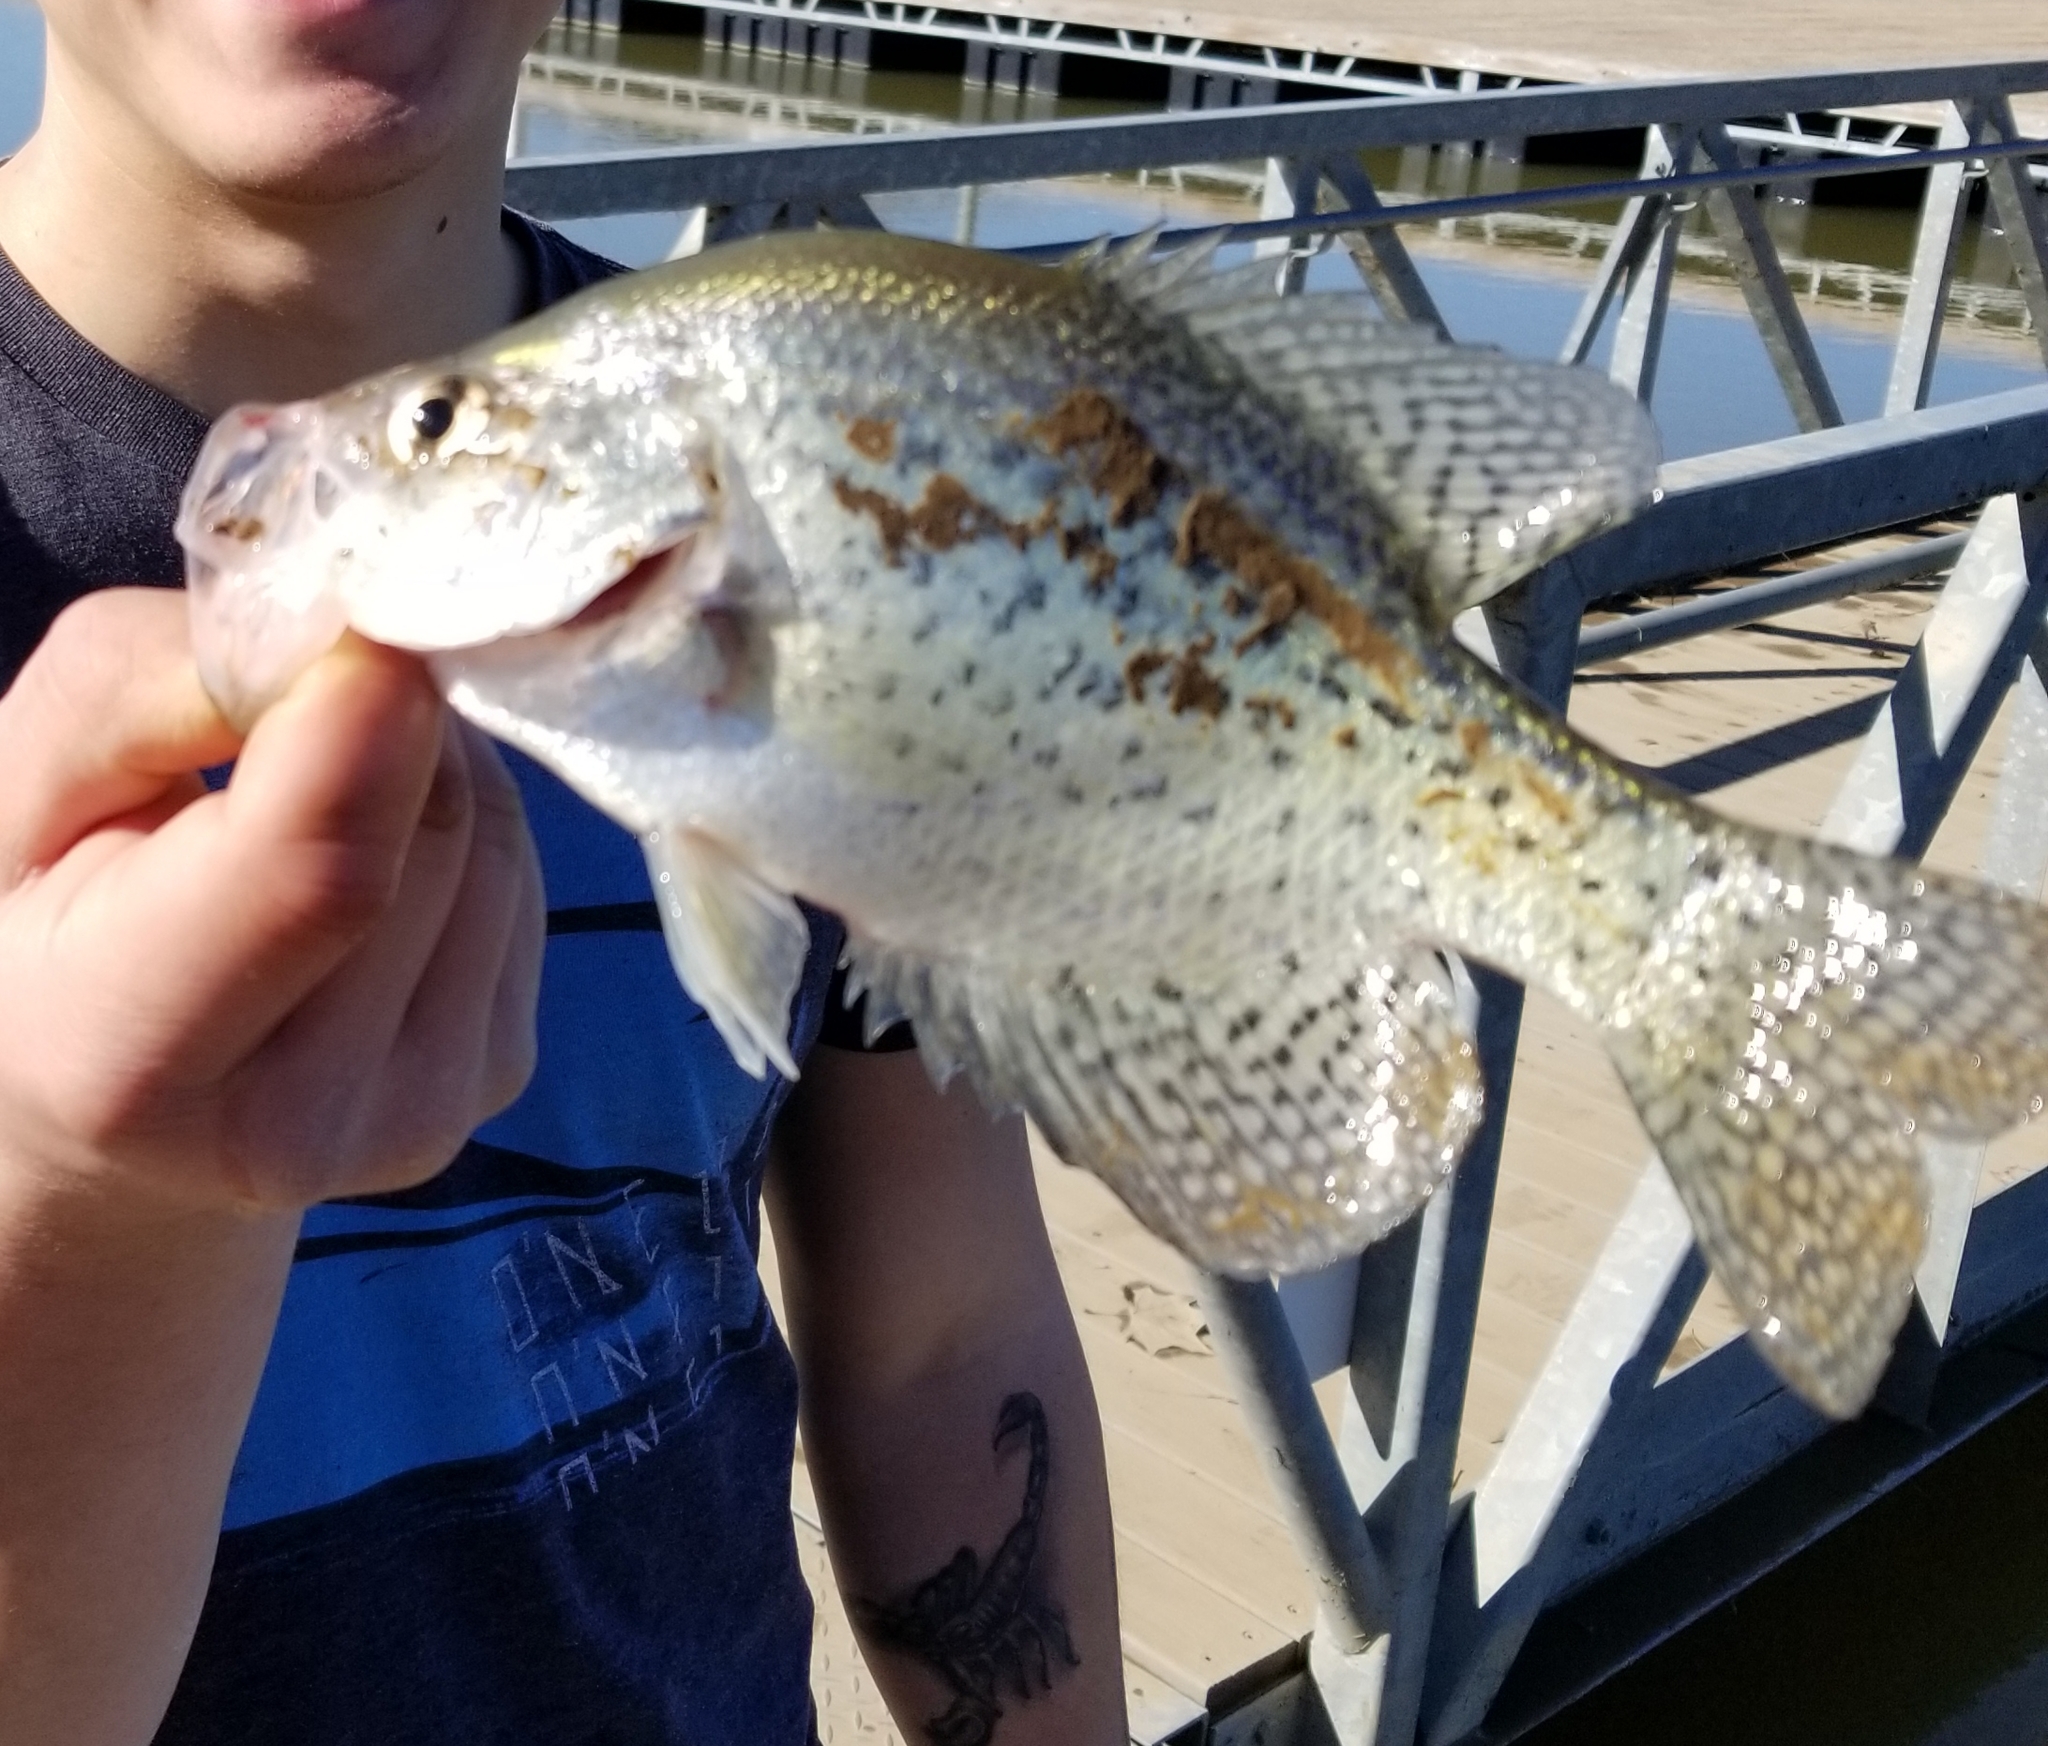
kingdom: Animalia
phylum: Chordata
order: Perciformes
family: Centrarchidae
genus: Pomoxis
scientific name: Pomoxis nigromaculatus
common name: Black crappie
